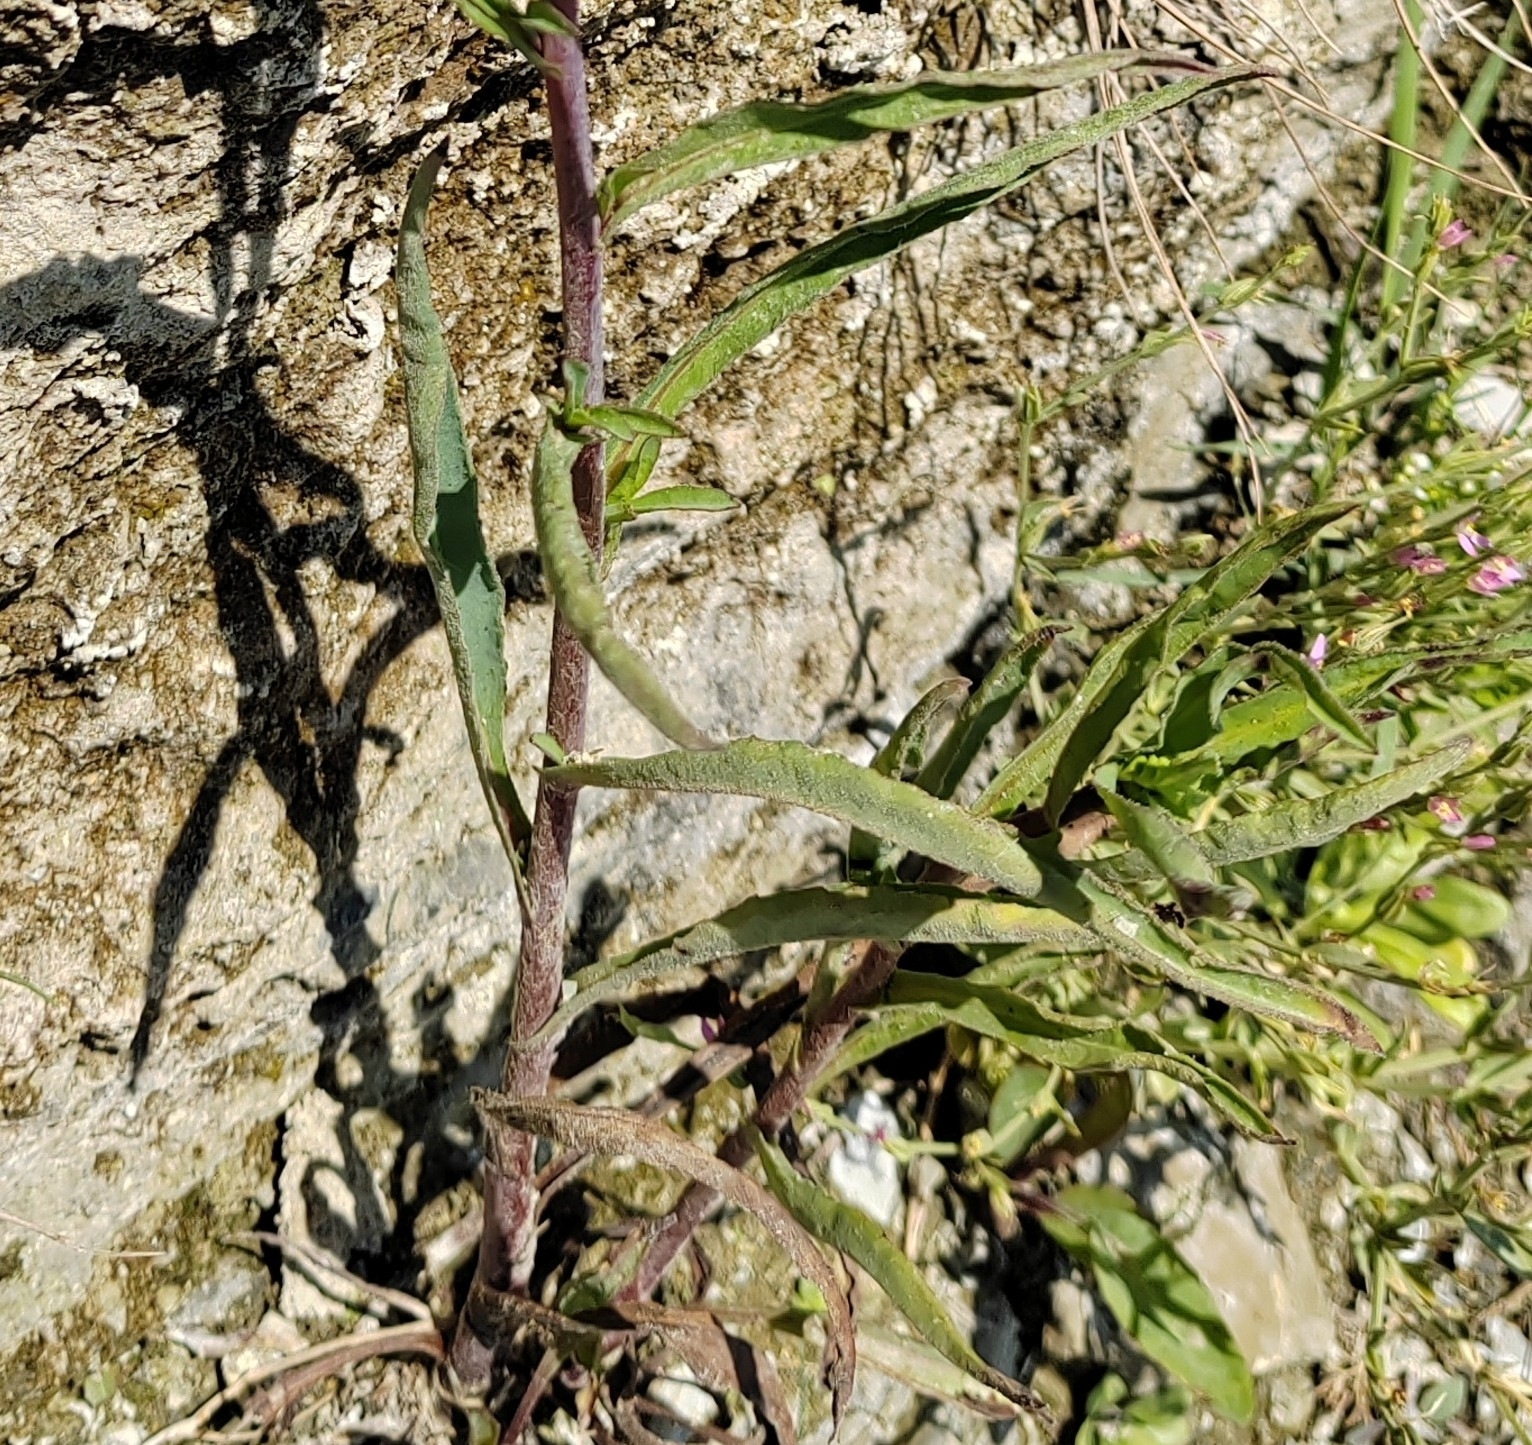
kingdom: Plantae
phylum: Tracheophyta
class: Magnoliopsida
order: Asterales
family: Asteraceae
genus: Pentanema
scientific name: Pentanema caspicum
